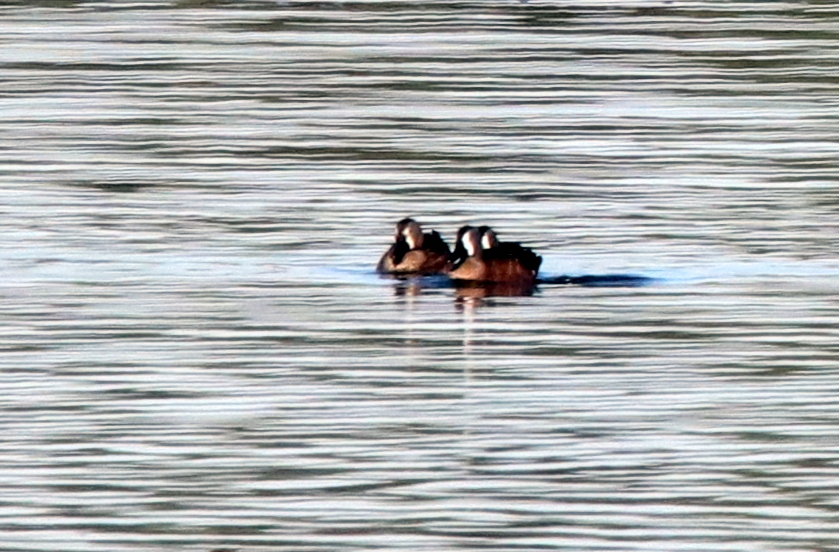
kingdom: Animalia
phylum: Chordata
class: Aves
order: Anseriformes
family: Anatidae
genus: Spatula
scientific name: Spatula discors
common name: Blue-winged teal
